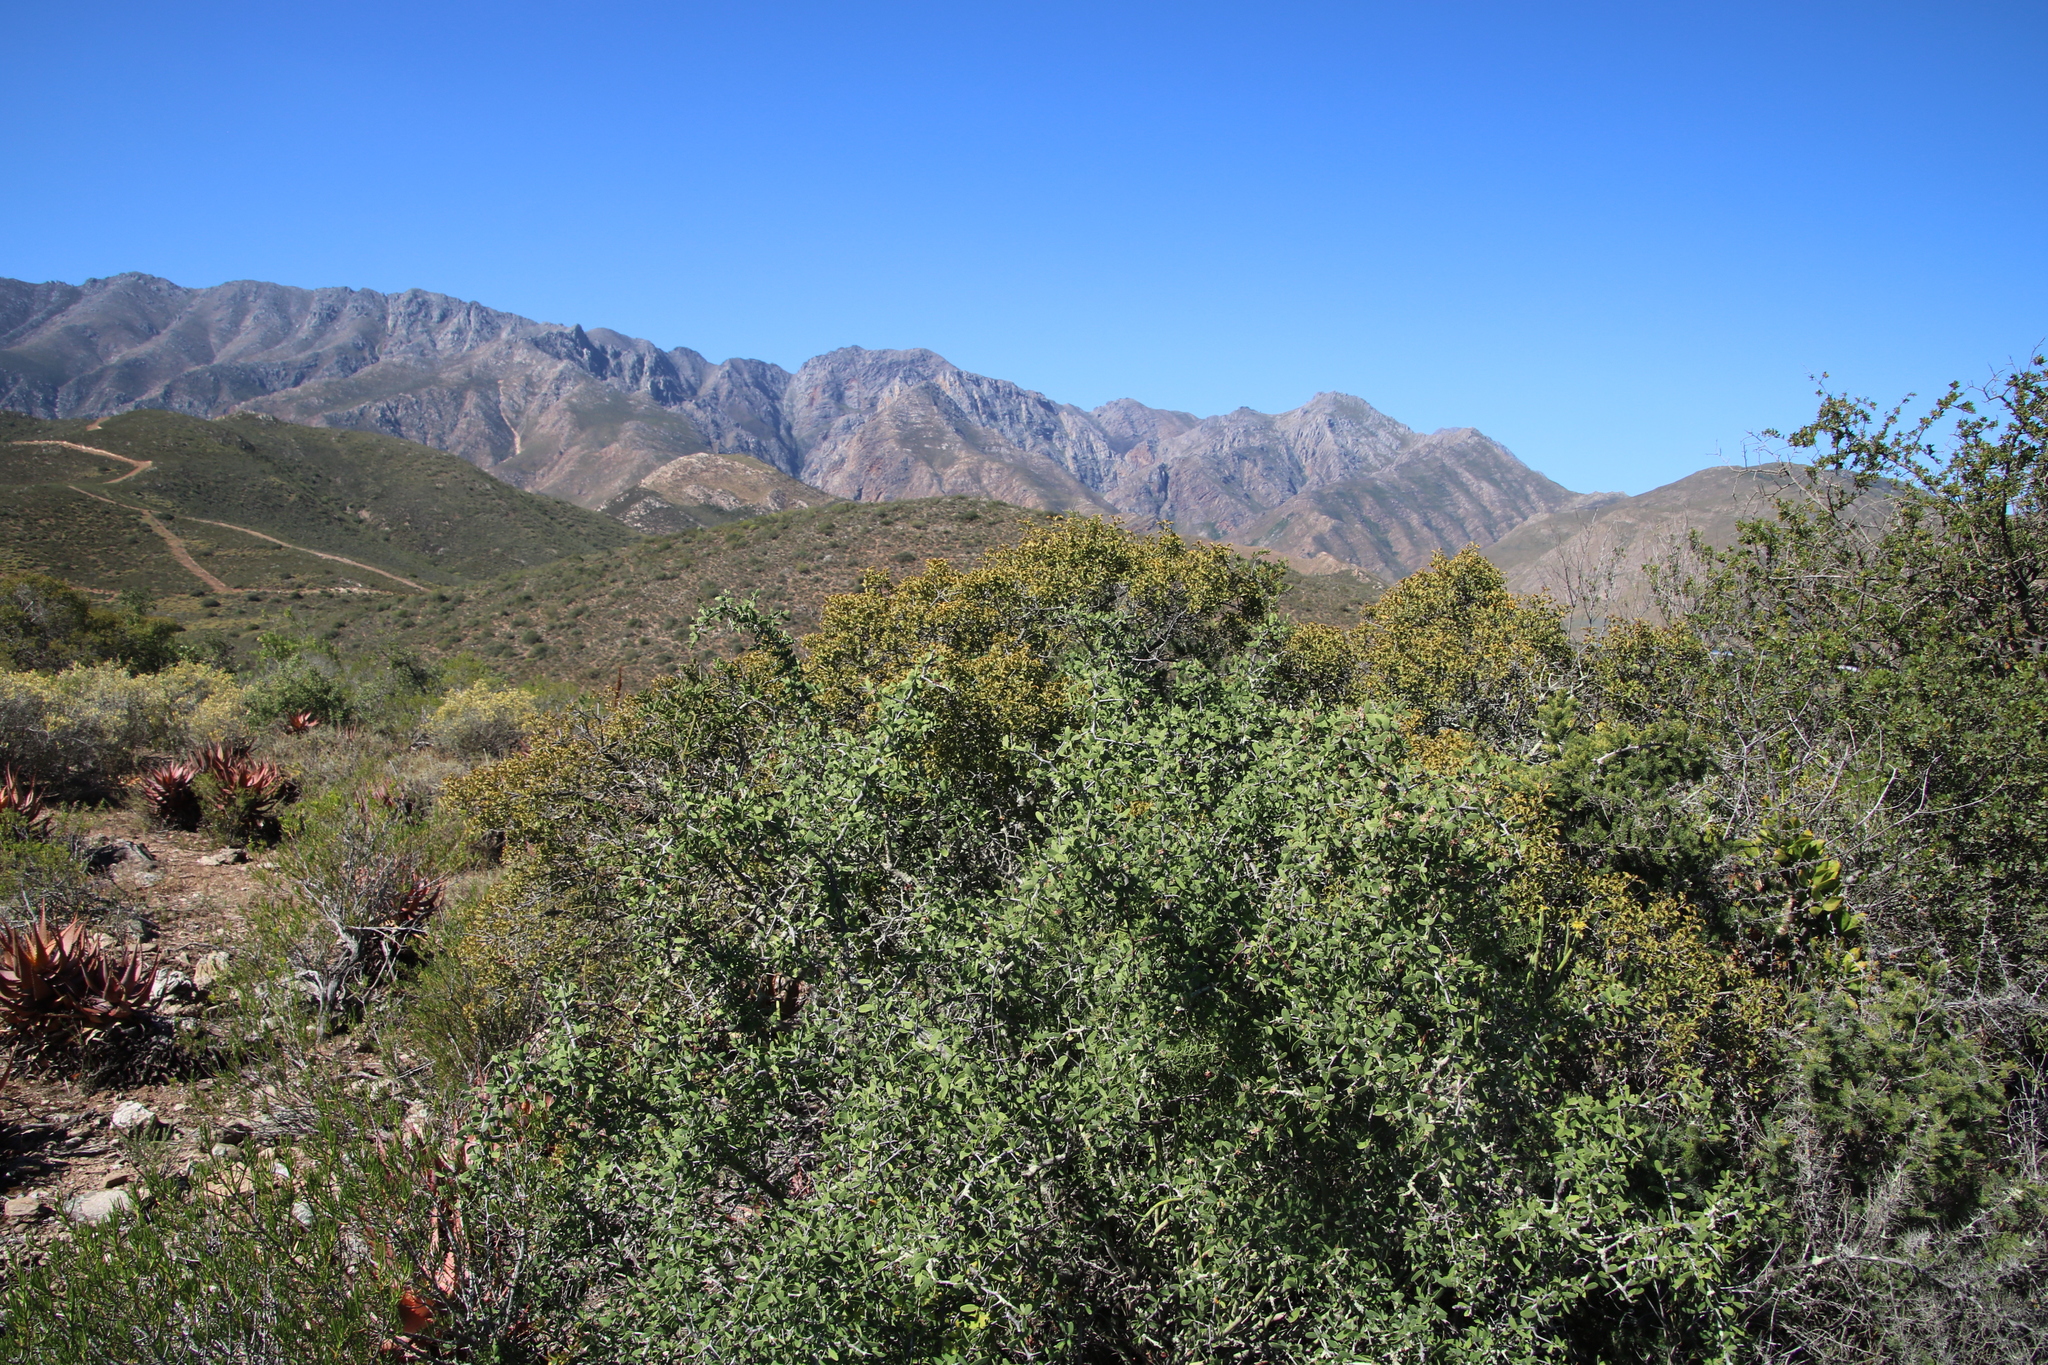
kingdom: Plantae
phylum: Tracheophyta
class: Magnoliopsida
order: Ericales
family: Ebenaceae
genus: Euclea
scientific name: Euclea undulata
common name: Small-leaved guarri
